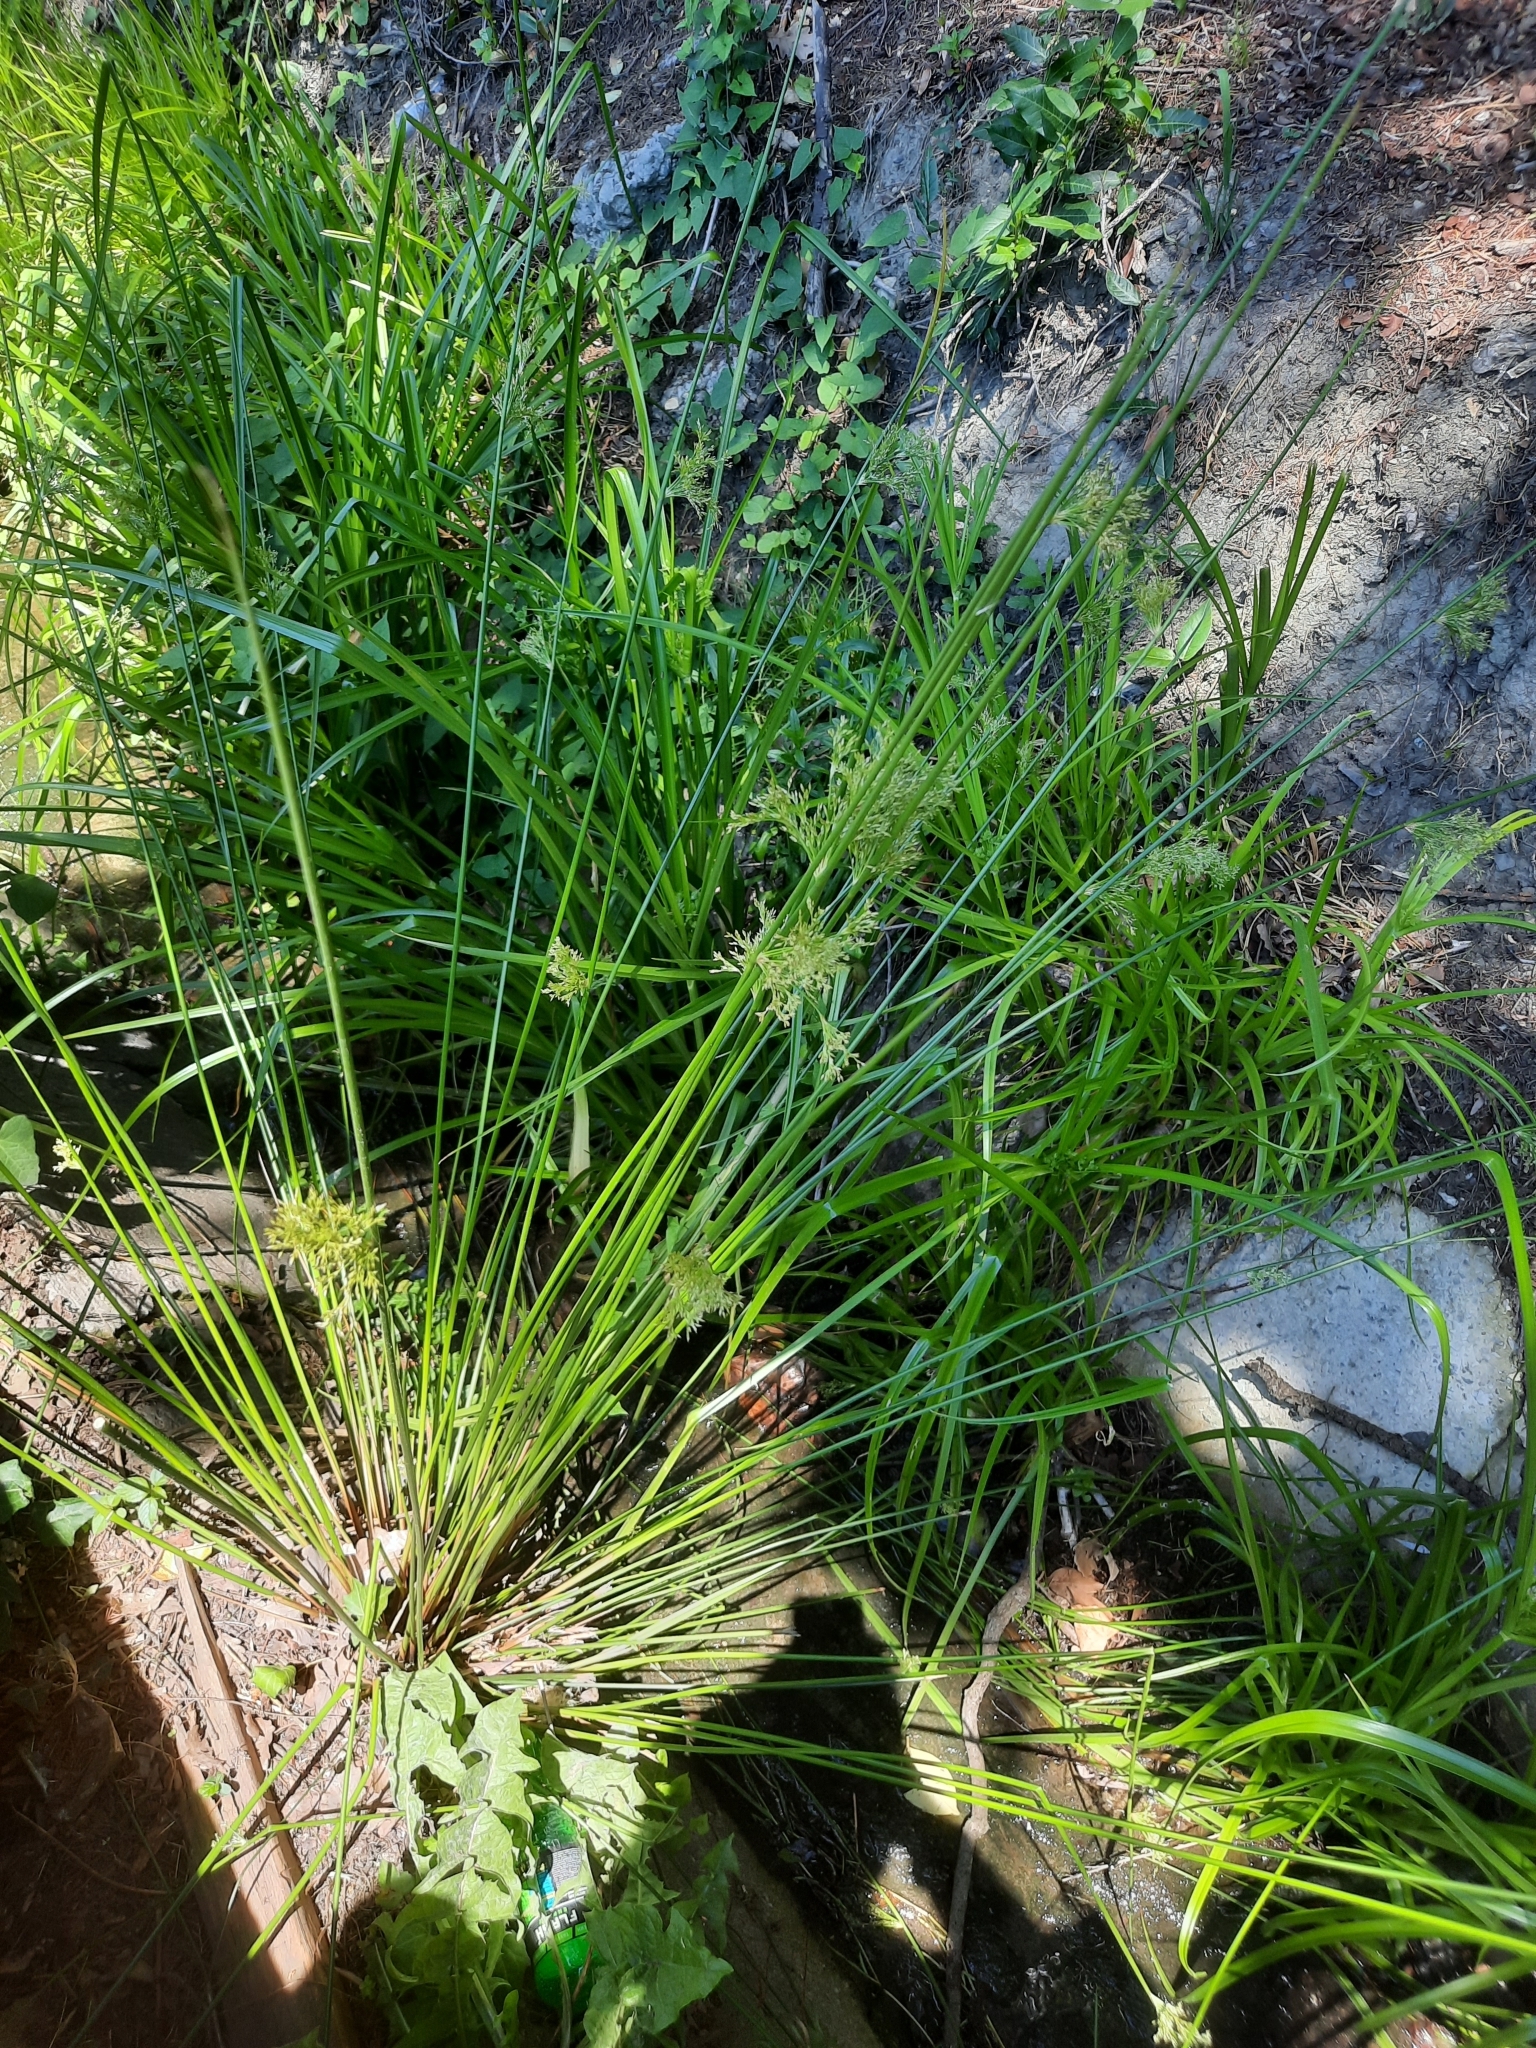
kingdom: Plantae
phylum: Tracheophyta
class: Liliopsida
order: Poales
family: Juncaceae
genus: Juncus
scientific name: Juncus effusus
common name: Soft rush
